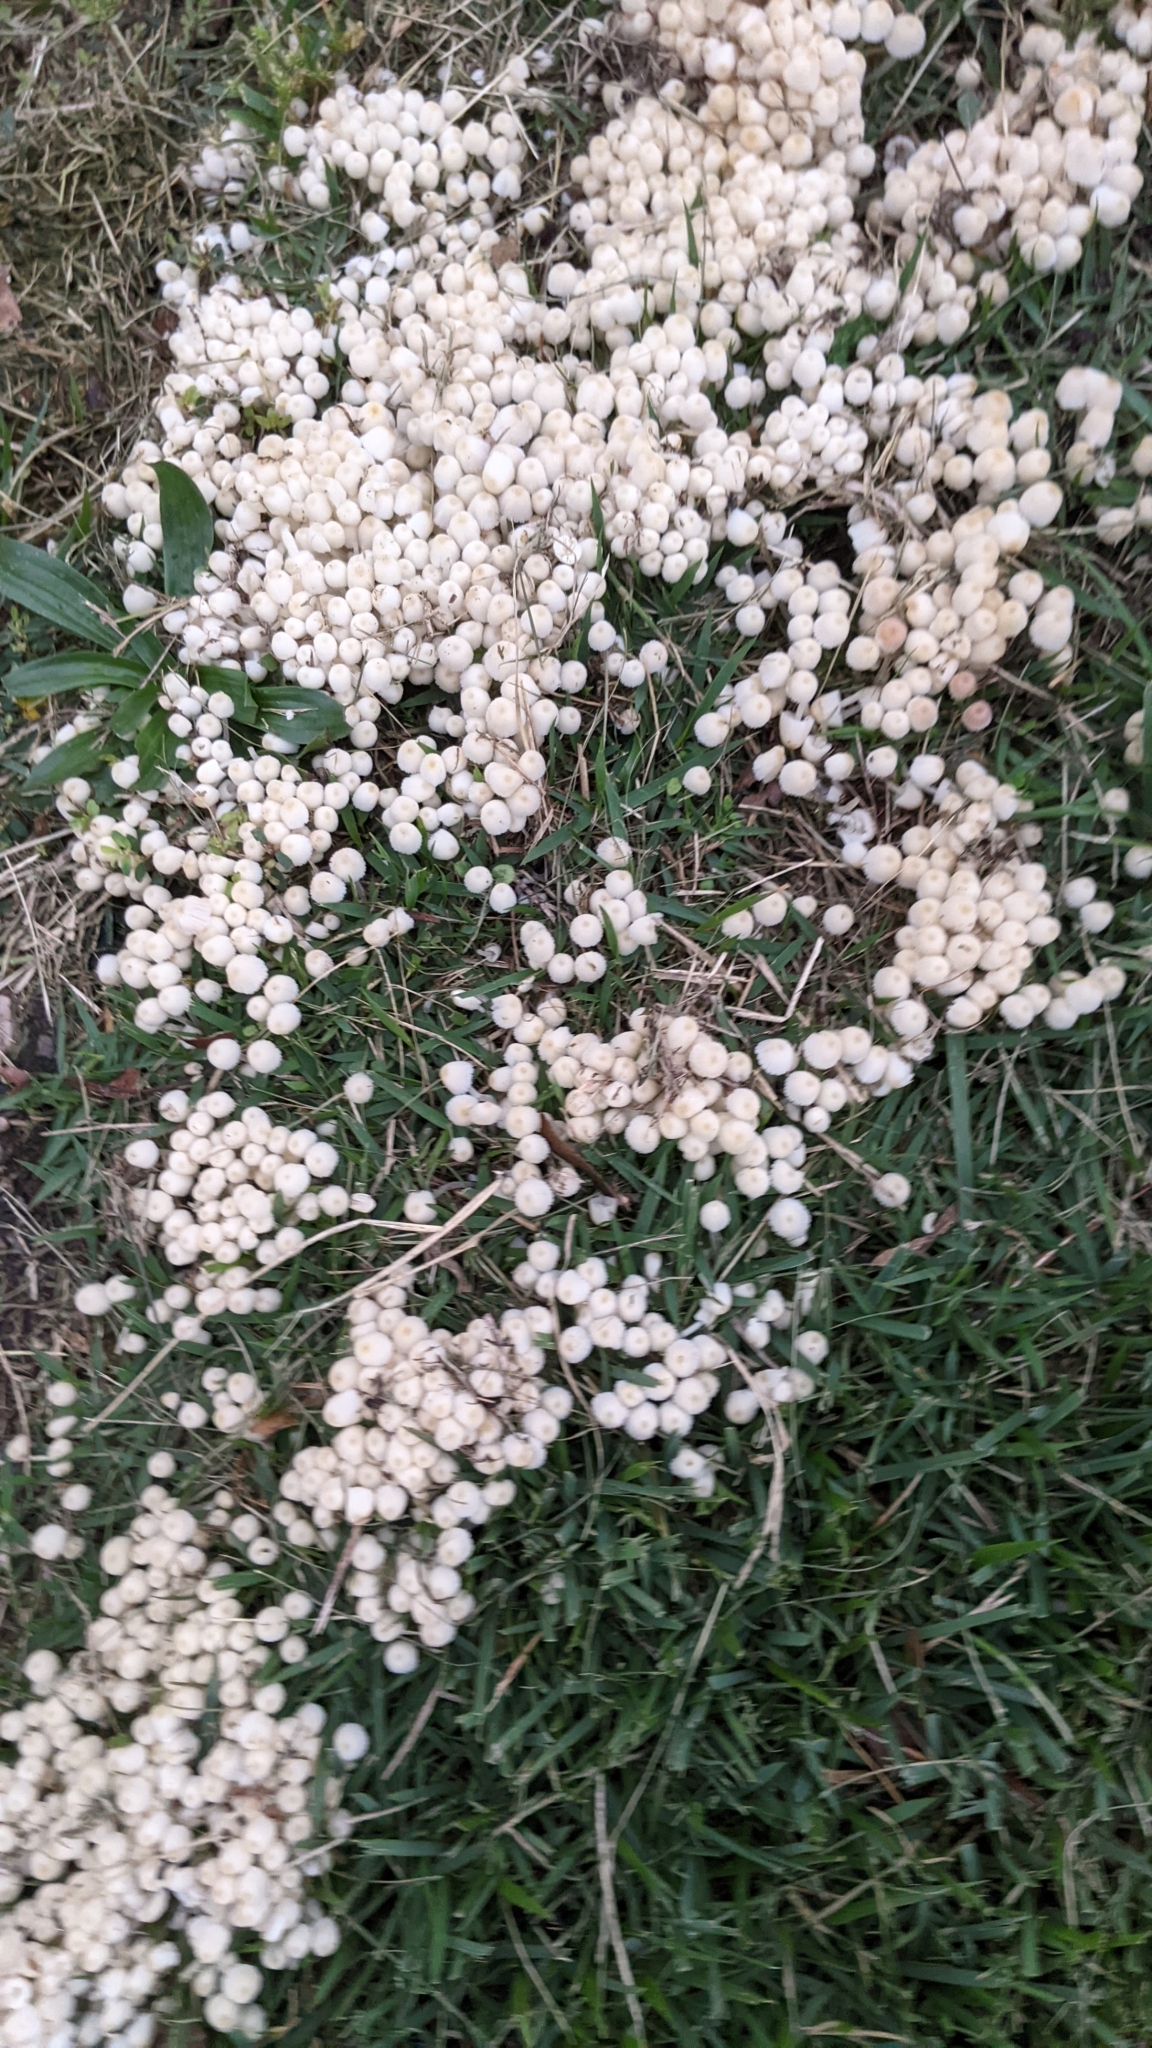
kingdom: Fungi
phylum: Basidiomycota
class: Agaricomycetes
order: Agaricales
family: Psathyrellaceae
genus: Coprinellus
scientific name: Coprinellus disseminatus
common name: Fairies' bonnets
